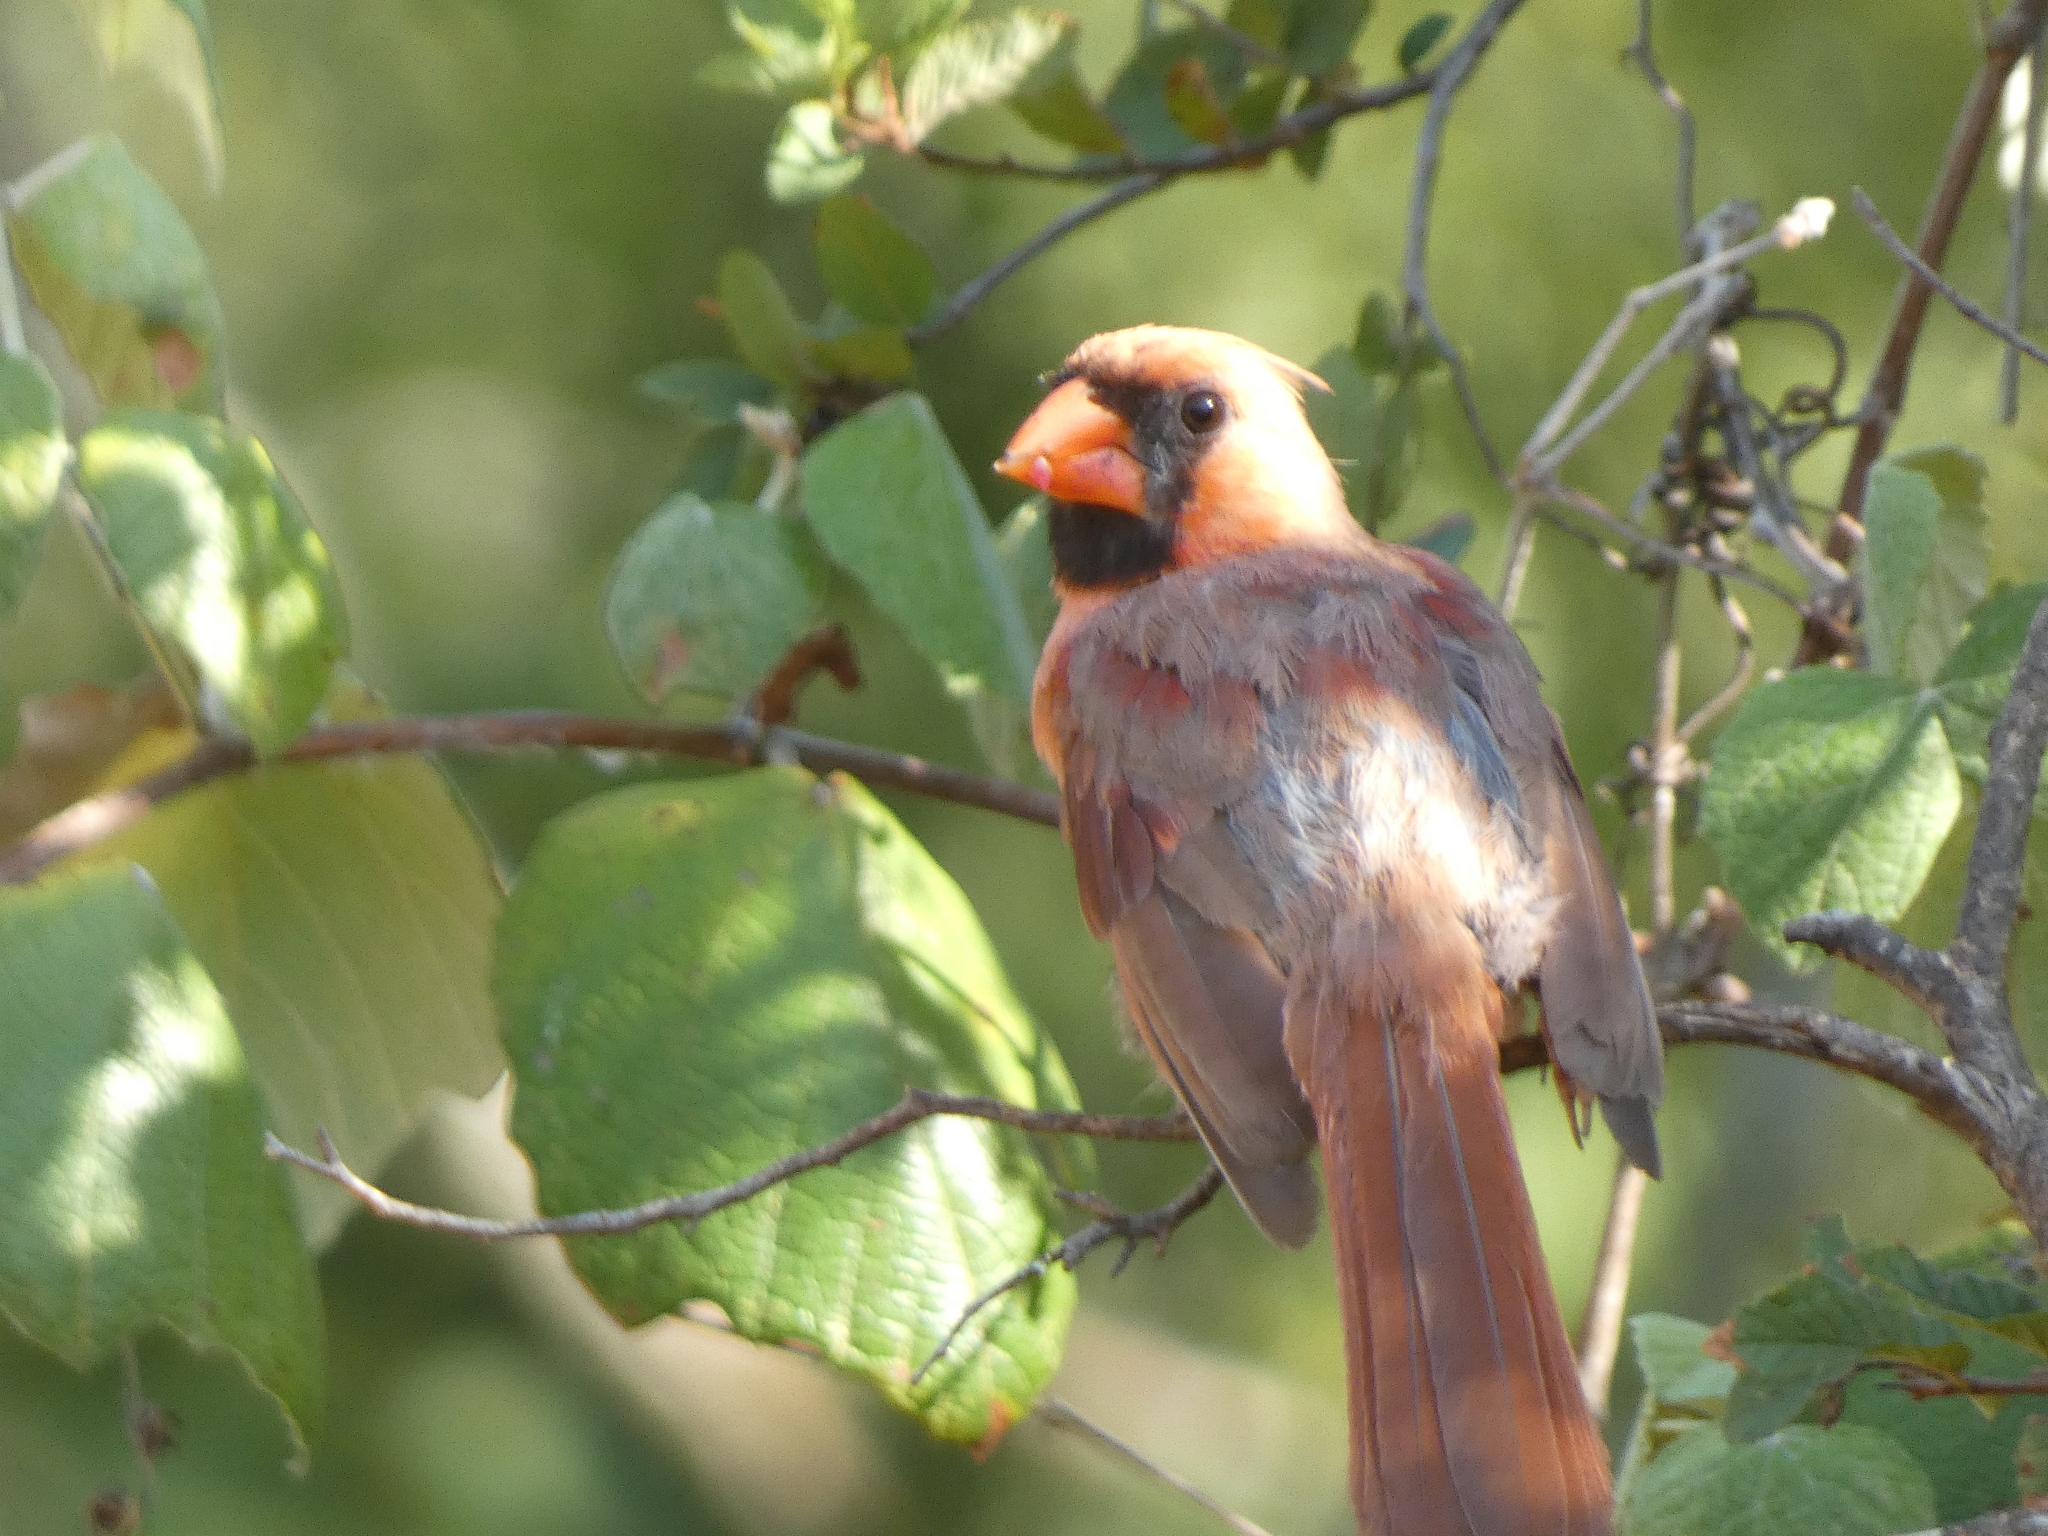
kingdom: Animalia
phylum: Chordata
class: Aves
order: Passeriformes
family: Cardinalidae
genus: Cardinalis
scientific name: Cardinalis cardinalis
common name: Northern cardinal
